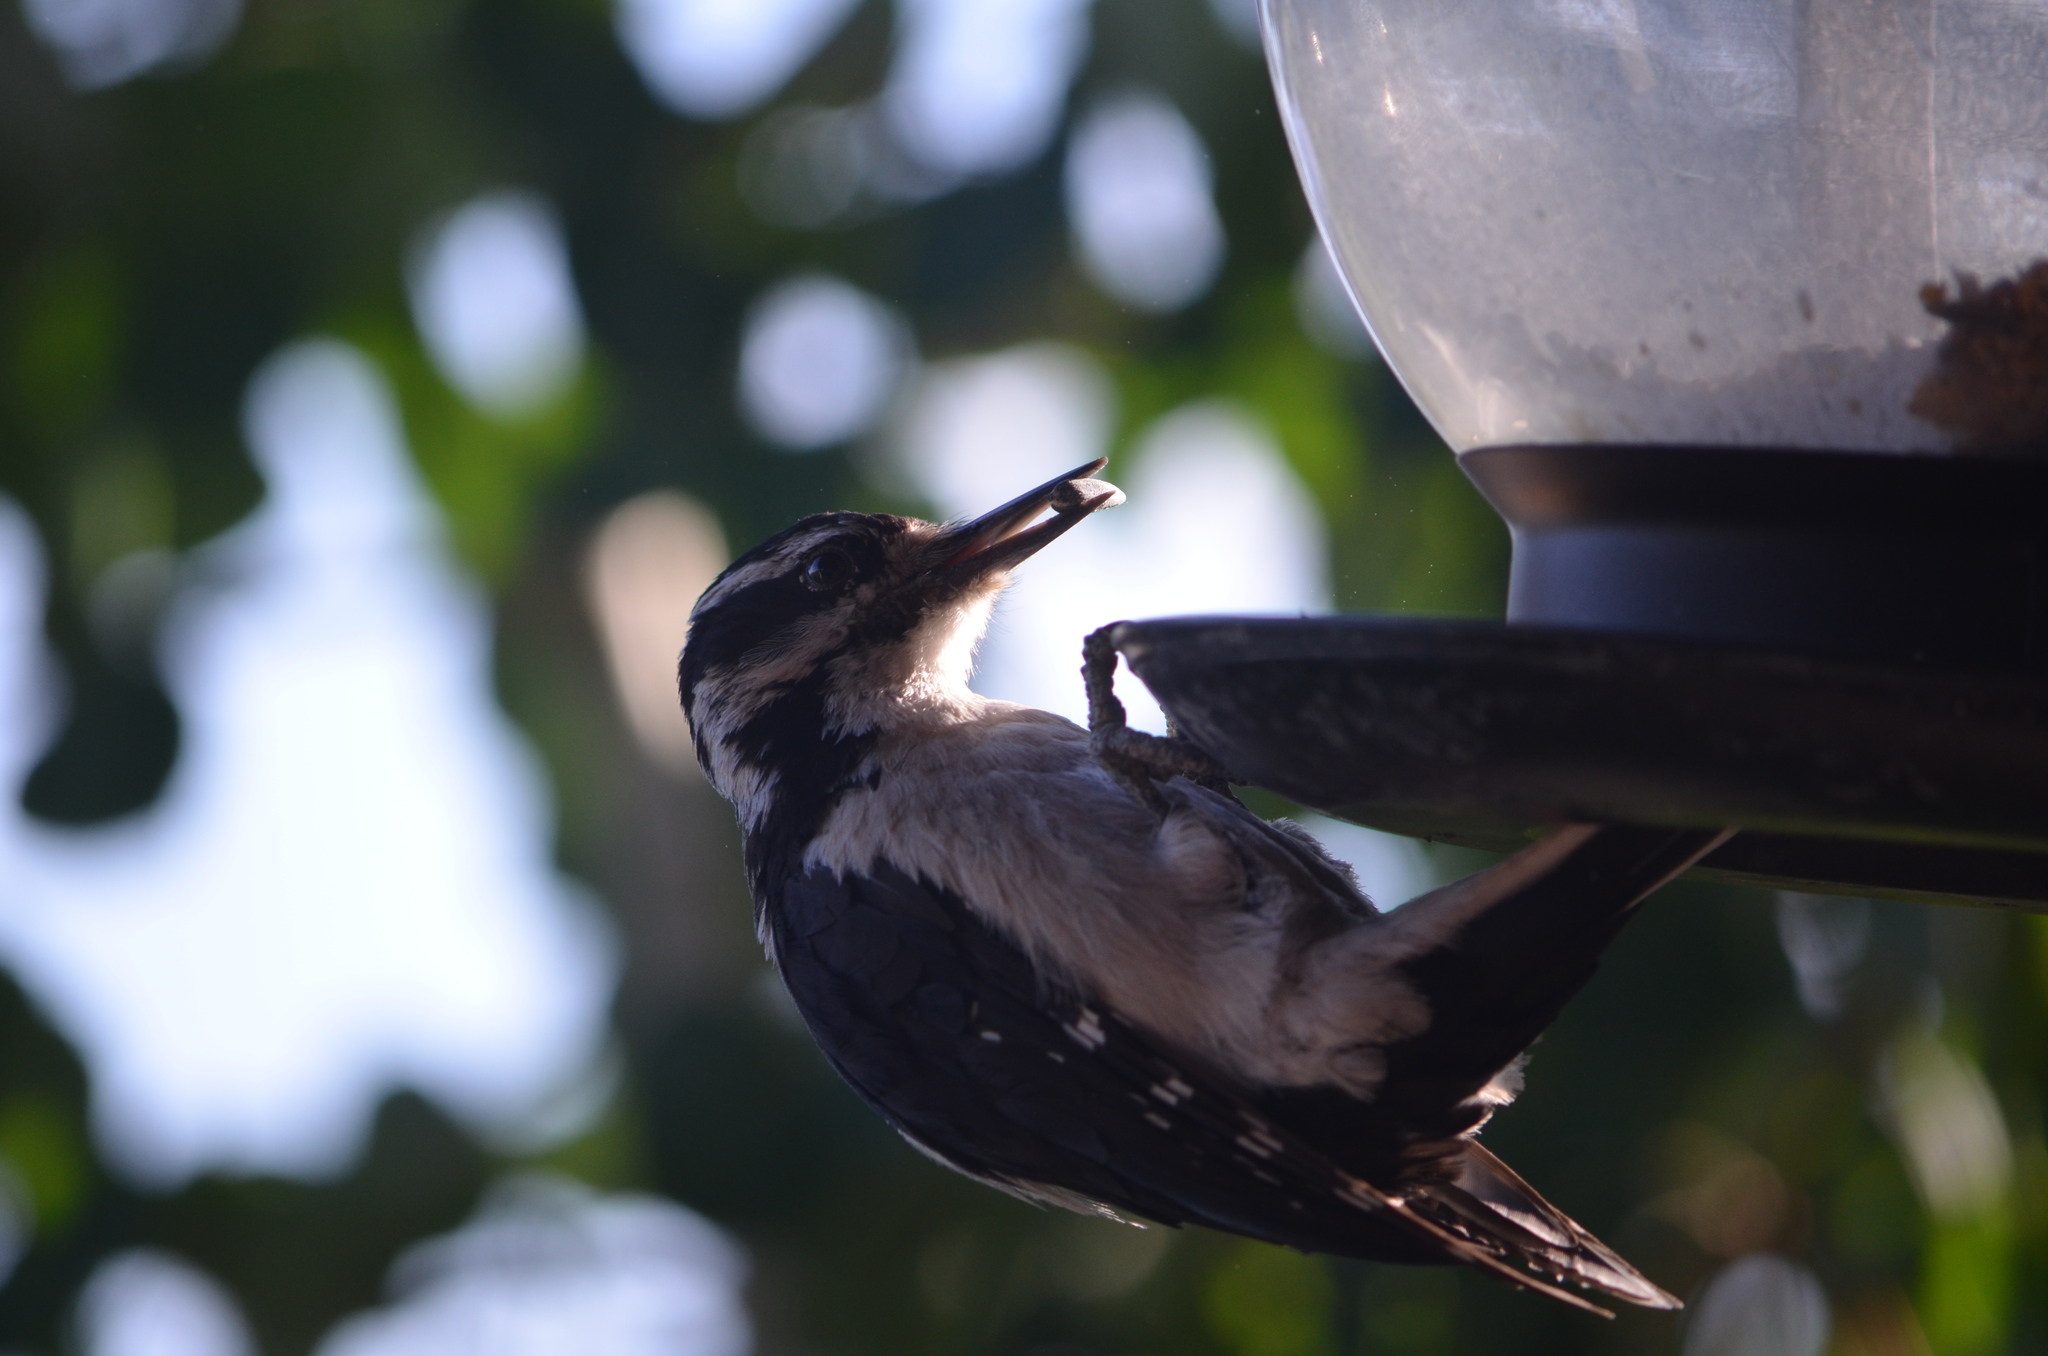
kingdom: Animalia
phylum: Chordata
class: Aves
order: Piciformes
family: Picidae
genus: Leuconotopicus
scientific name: Leuconotopicus villosus
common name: Hairy woodpecker
